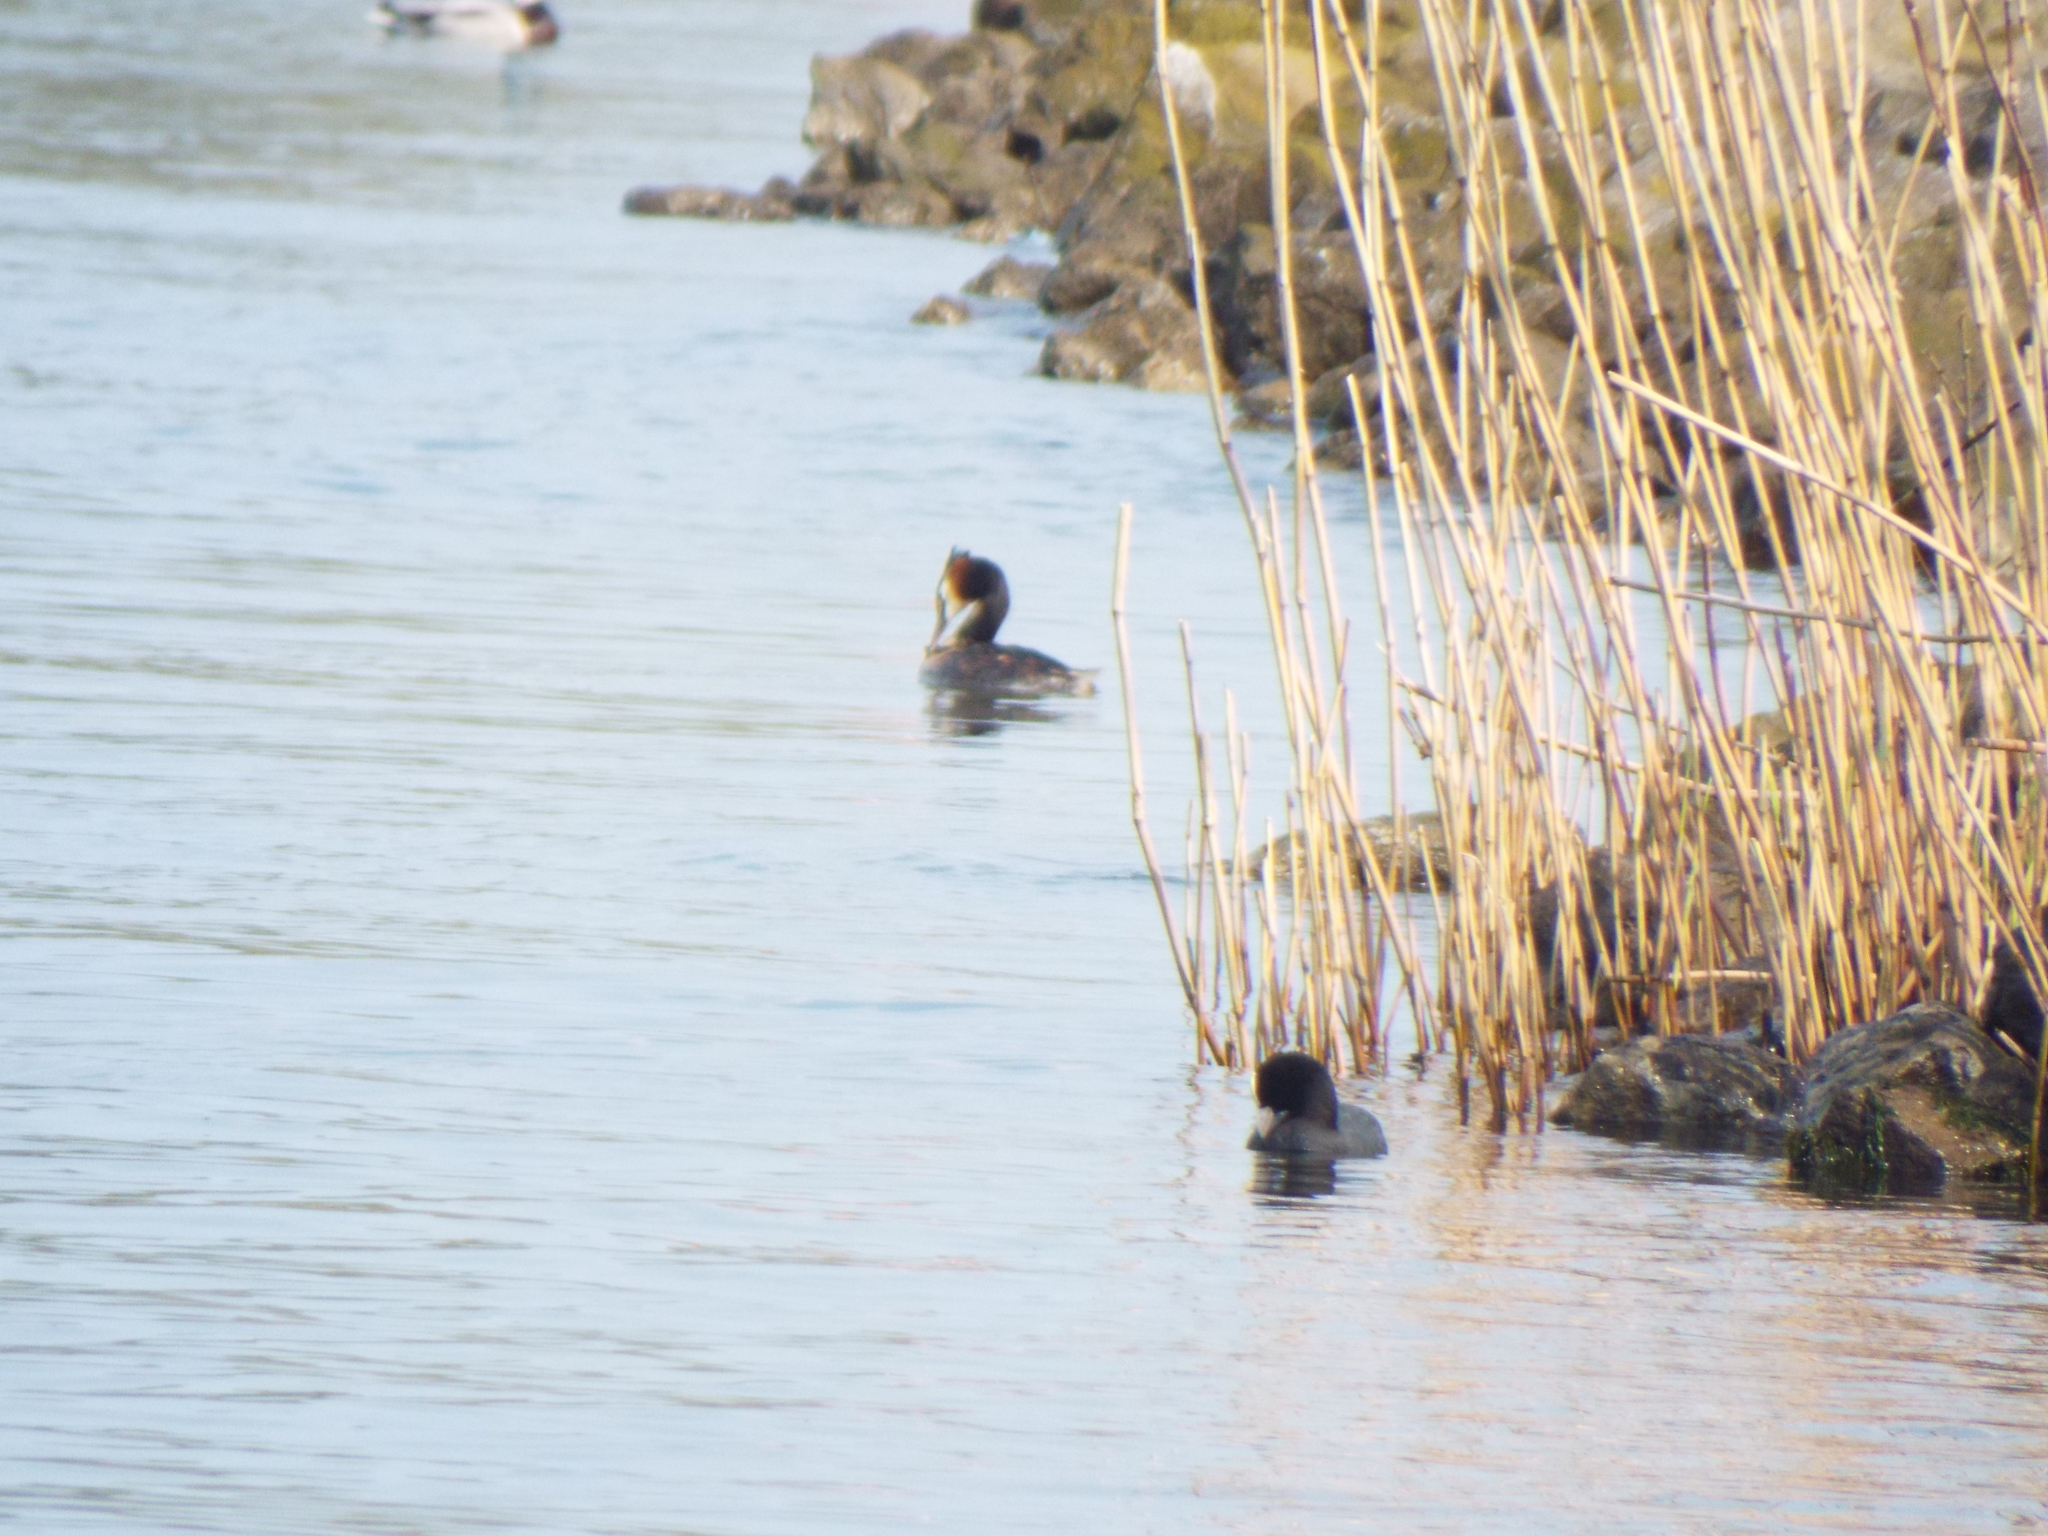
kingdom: Animalia
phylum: Chordata
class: Aves
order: Gruiformes
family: Rallidae
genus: Fulica
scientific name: Fulica atra
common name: Eurasian coot
